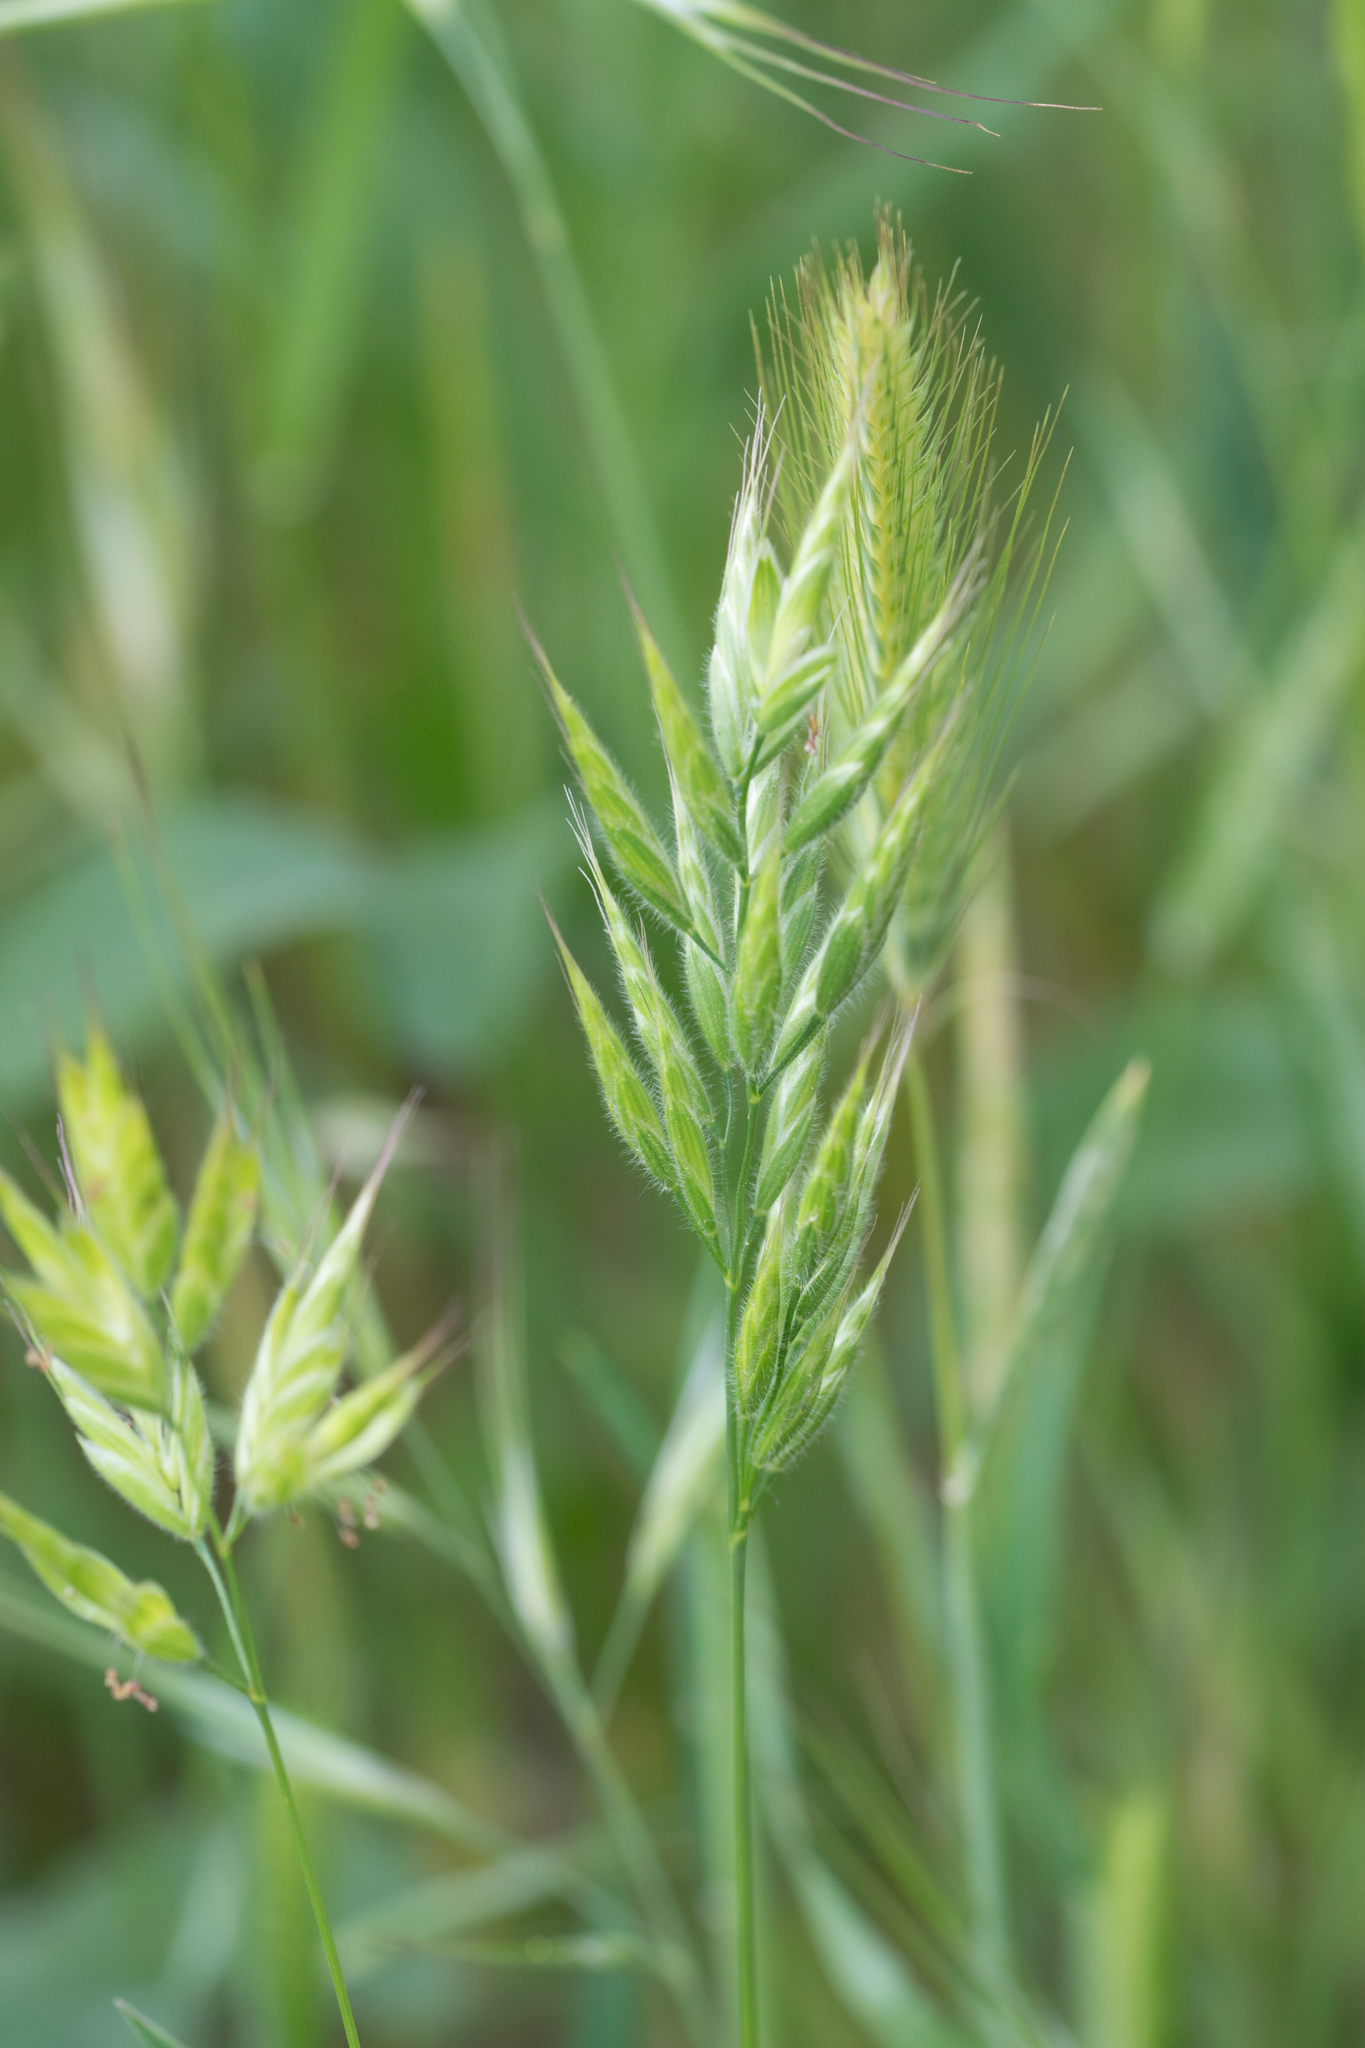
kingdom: Plantae
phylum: Tracheophyta
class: Liliopsida
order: Poales
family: Poaceae
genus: Bromus
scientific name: Bromus hordeaceus
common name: Soft brome
